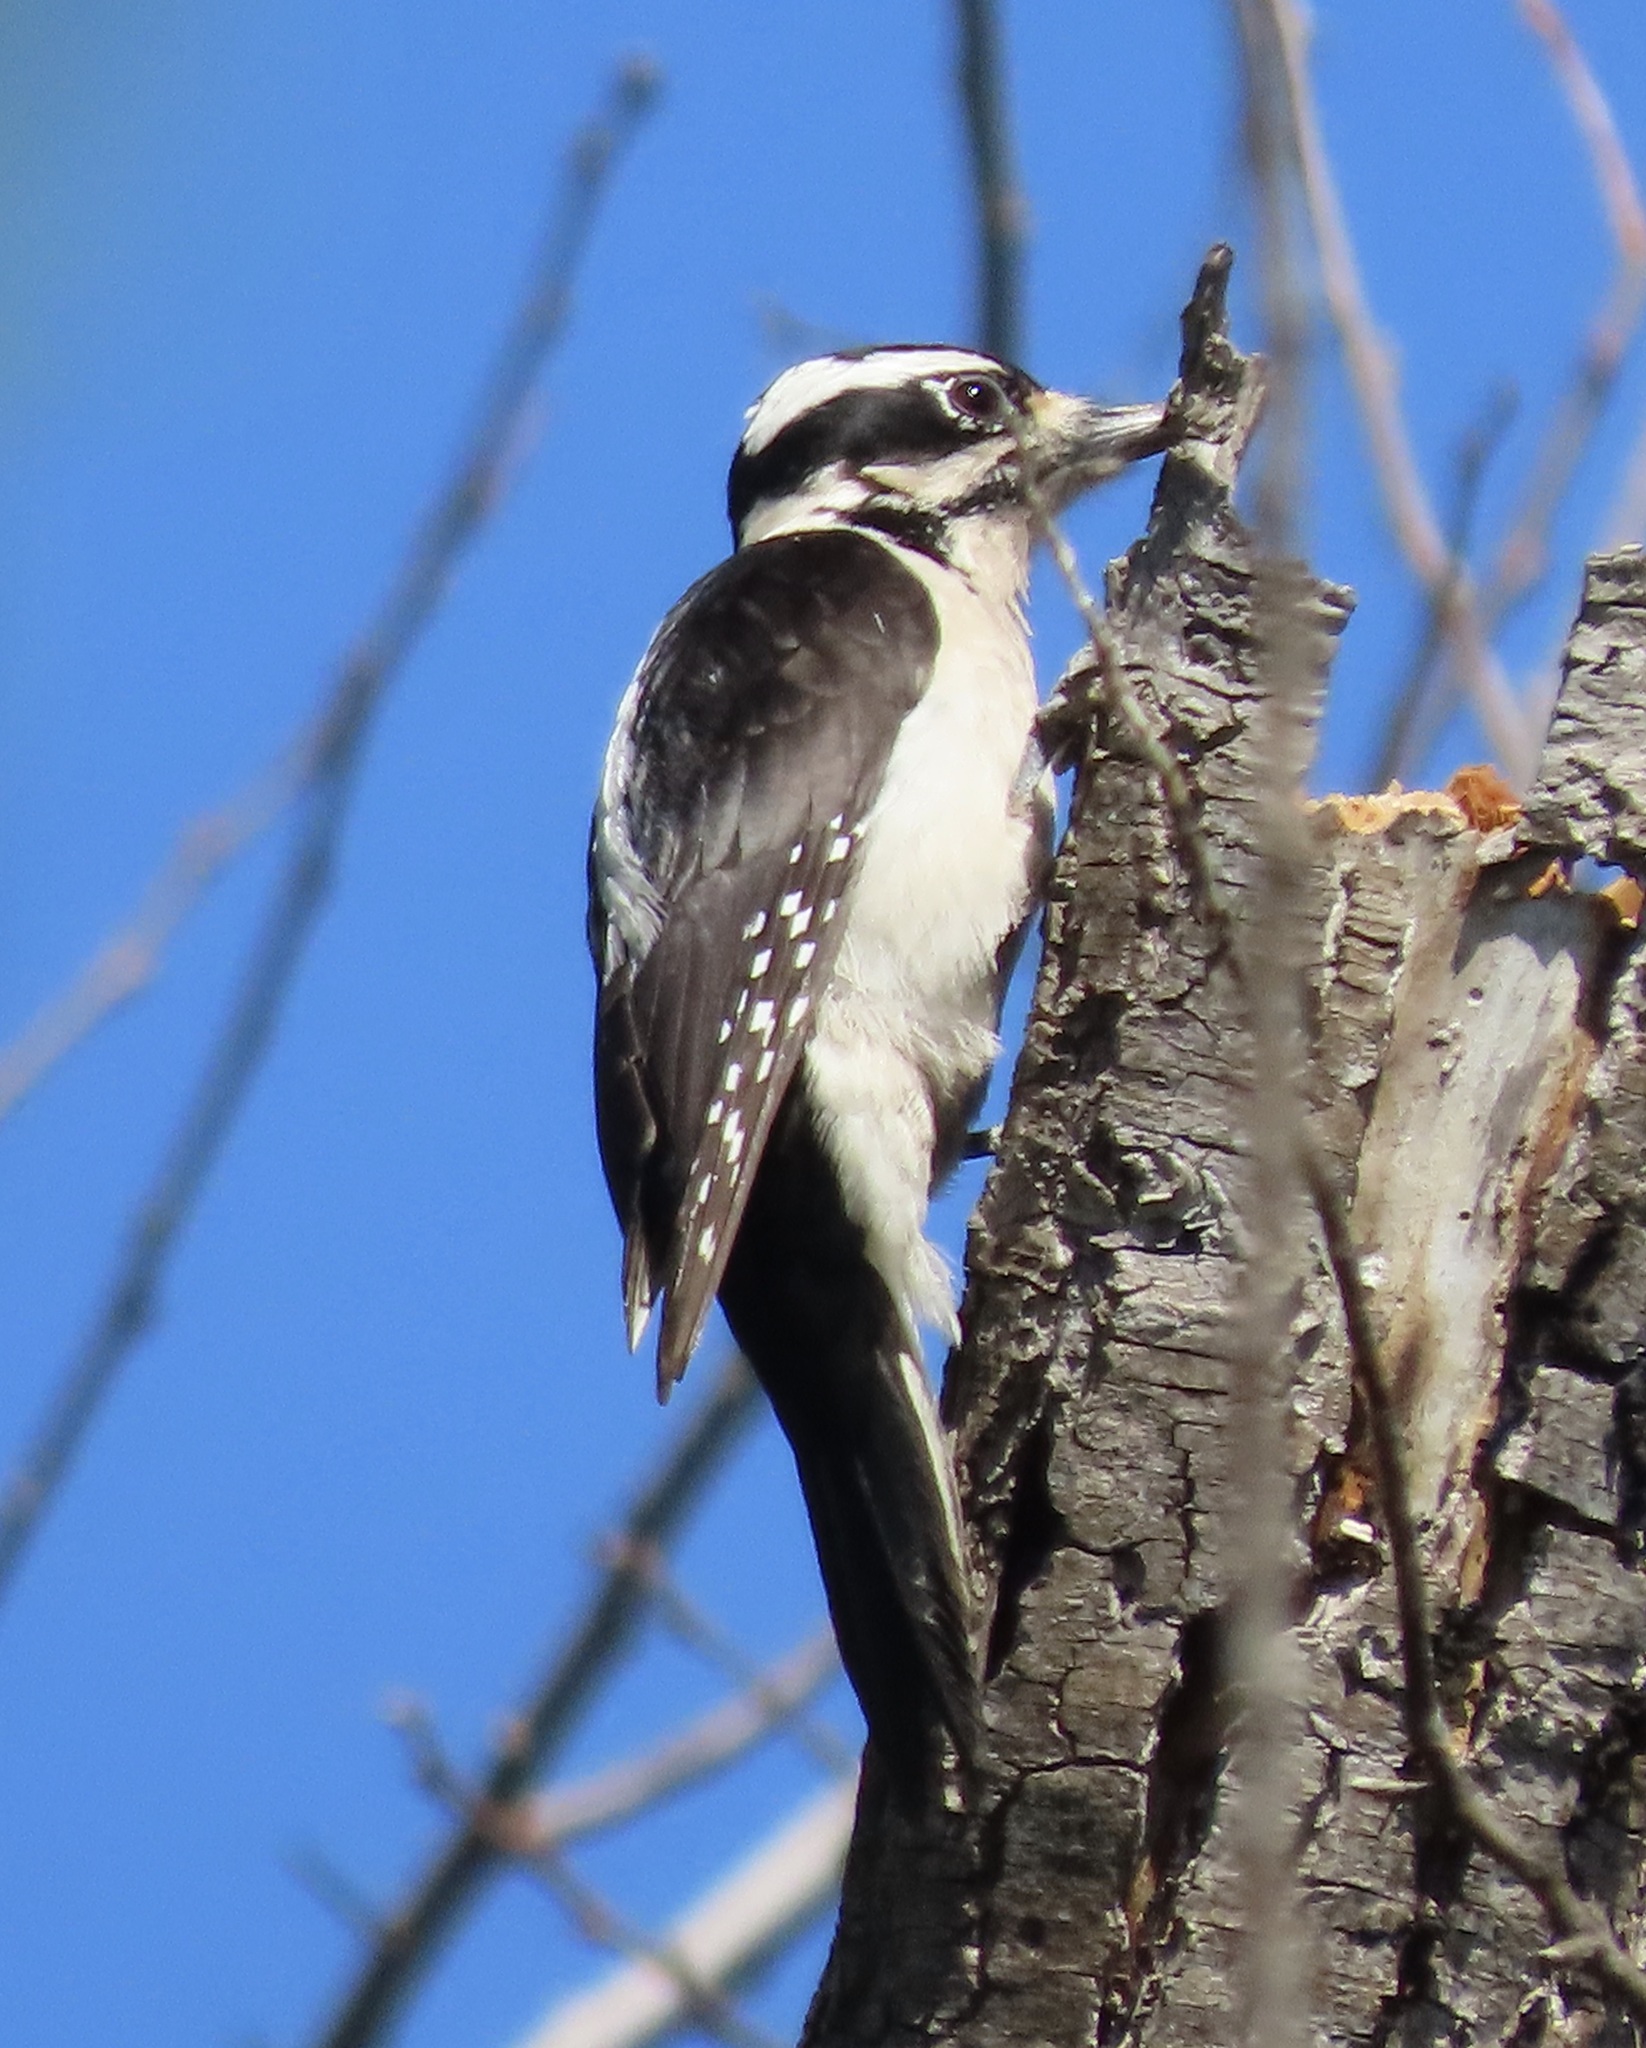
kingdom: Animalia
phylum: Chordata
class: Aves
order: Piciformes
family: Picidae
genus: Leuconotopicus
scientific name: Leuconotopicus villosus
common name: Hairy woodpecker
